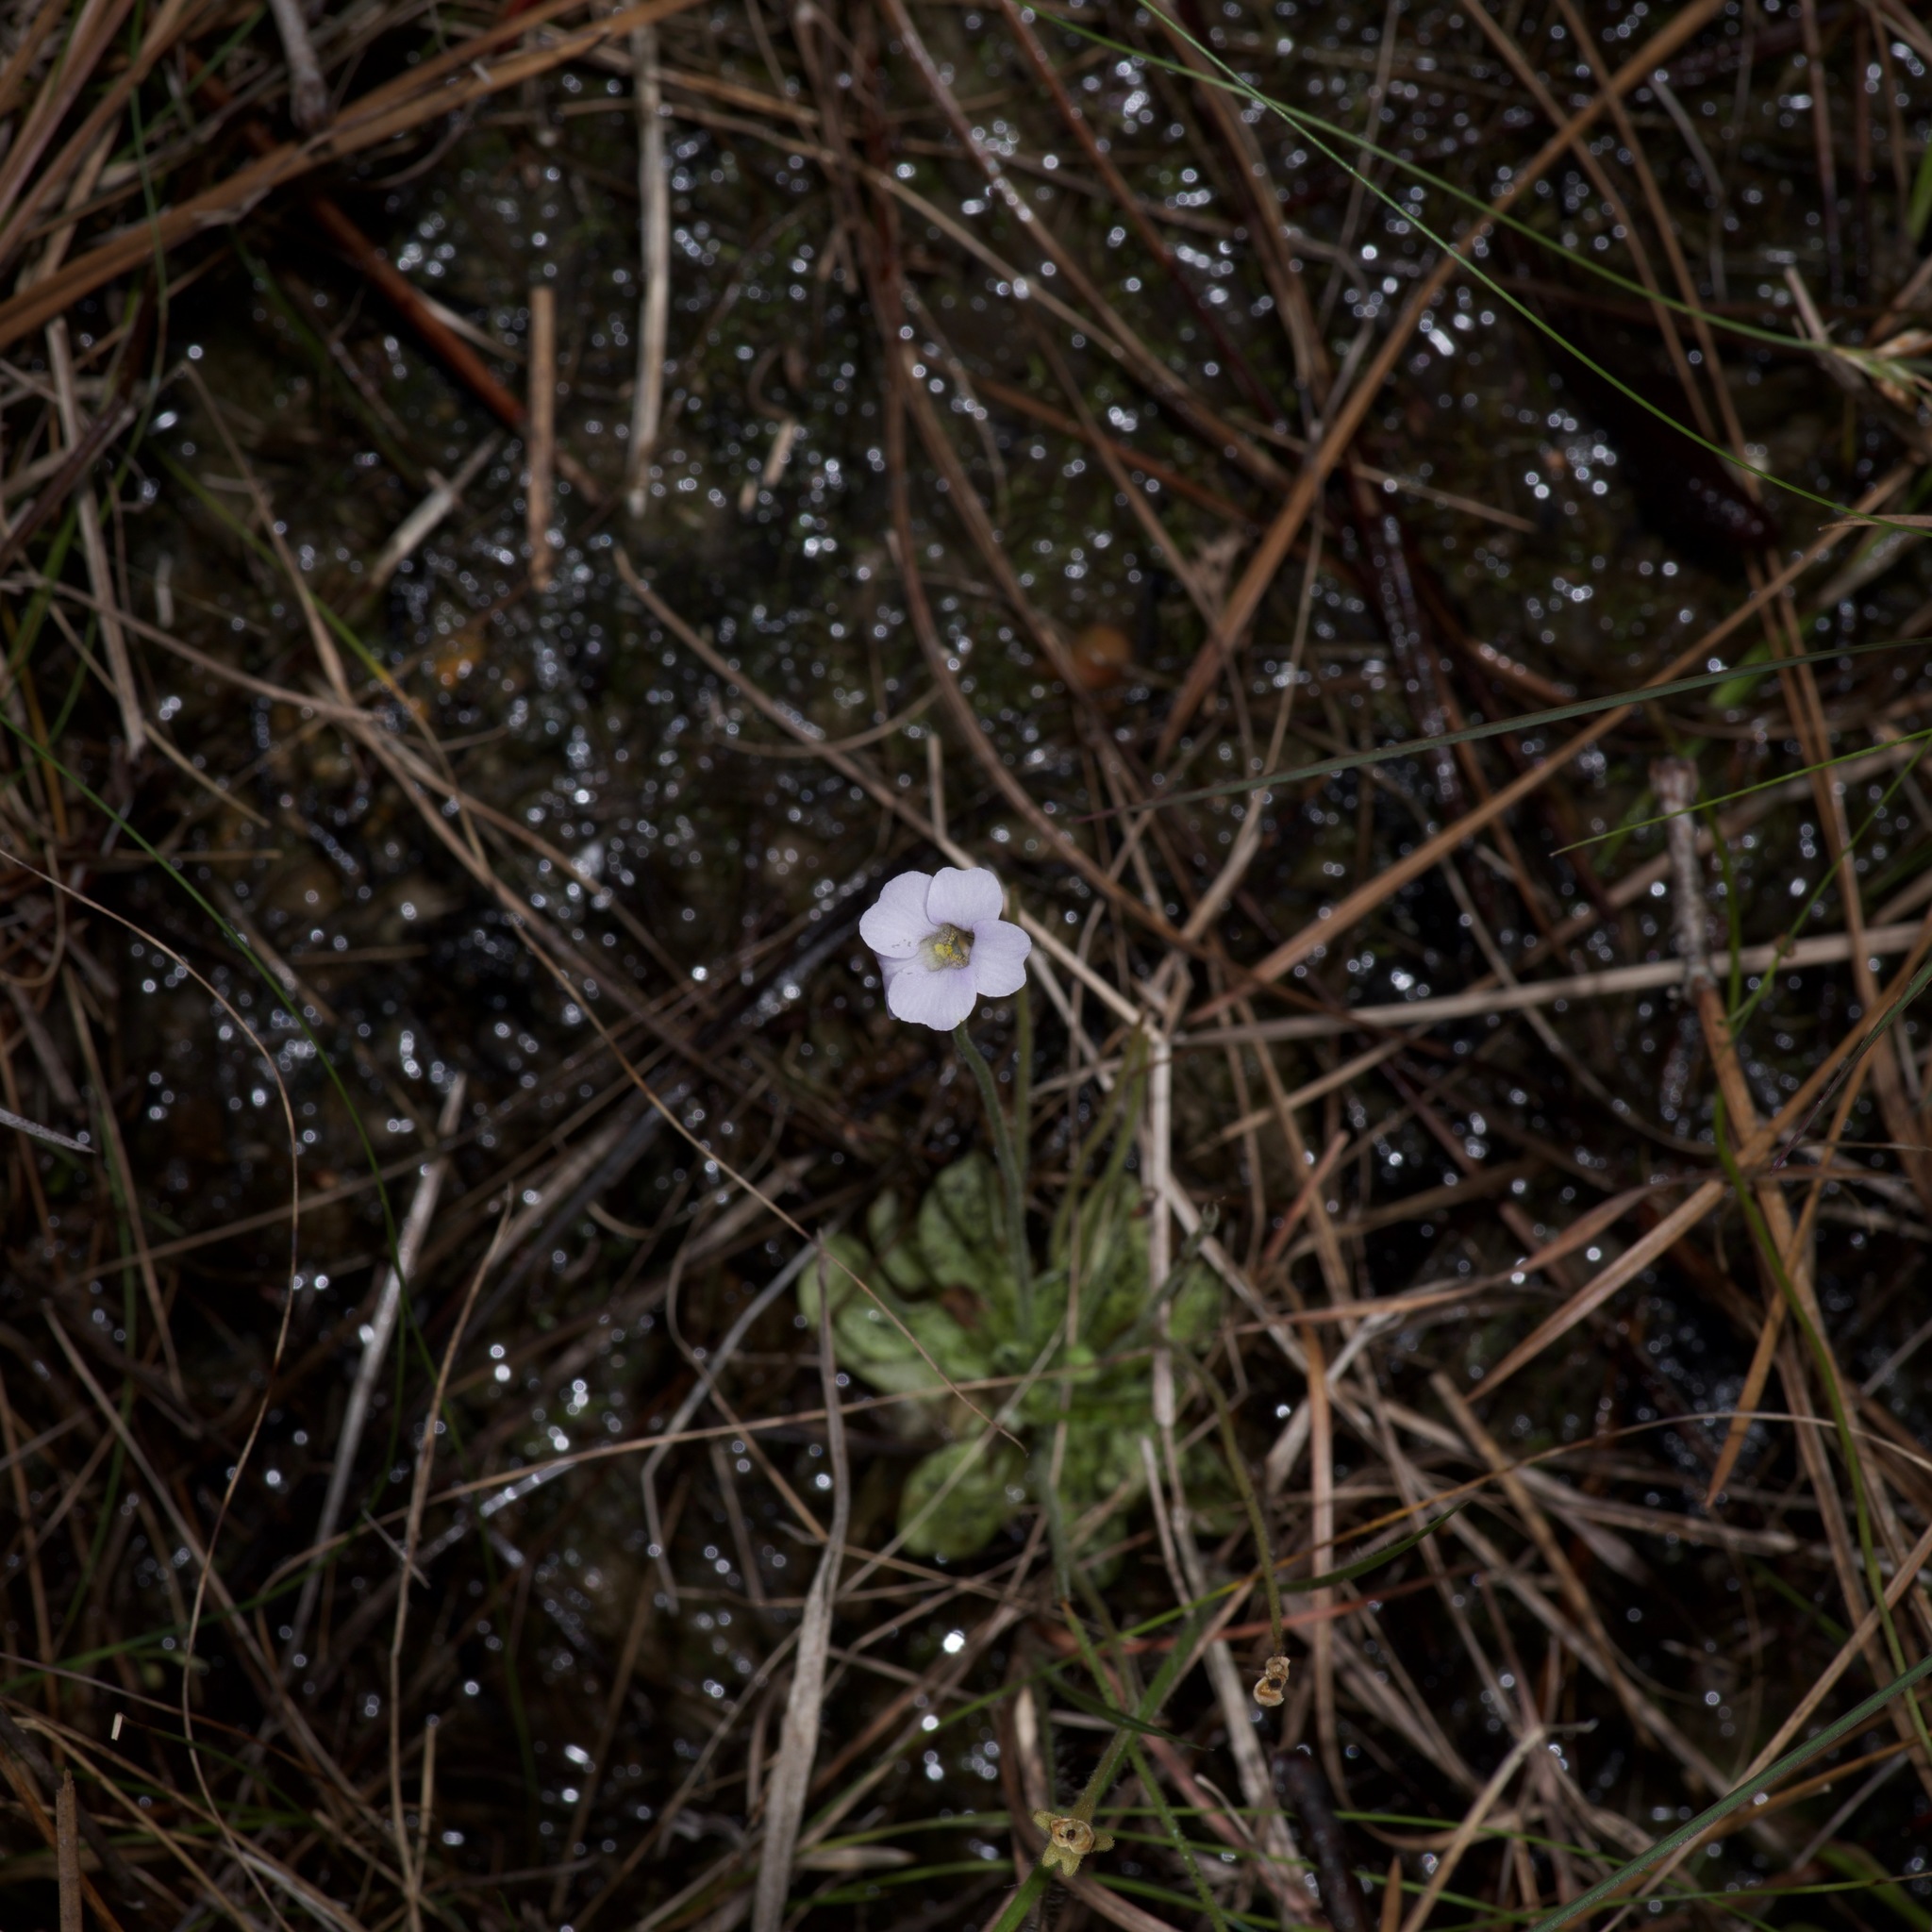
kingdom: Plantae
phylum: Tracheophyta
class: Magnoliopsida
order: Lamiales
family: Lentibulariaceae
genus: Pinguicula
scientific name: Pinguicula pumila
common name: Small butterwort
